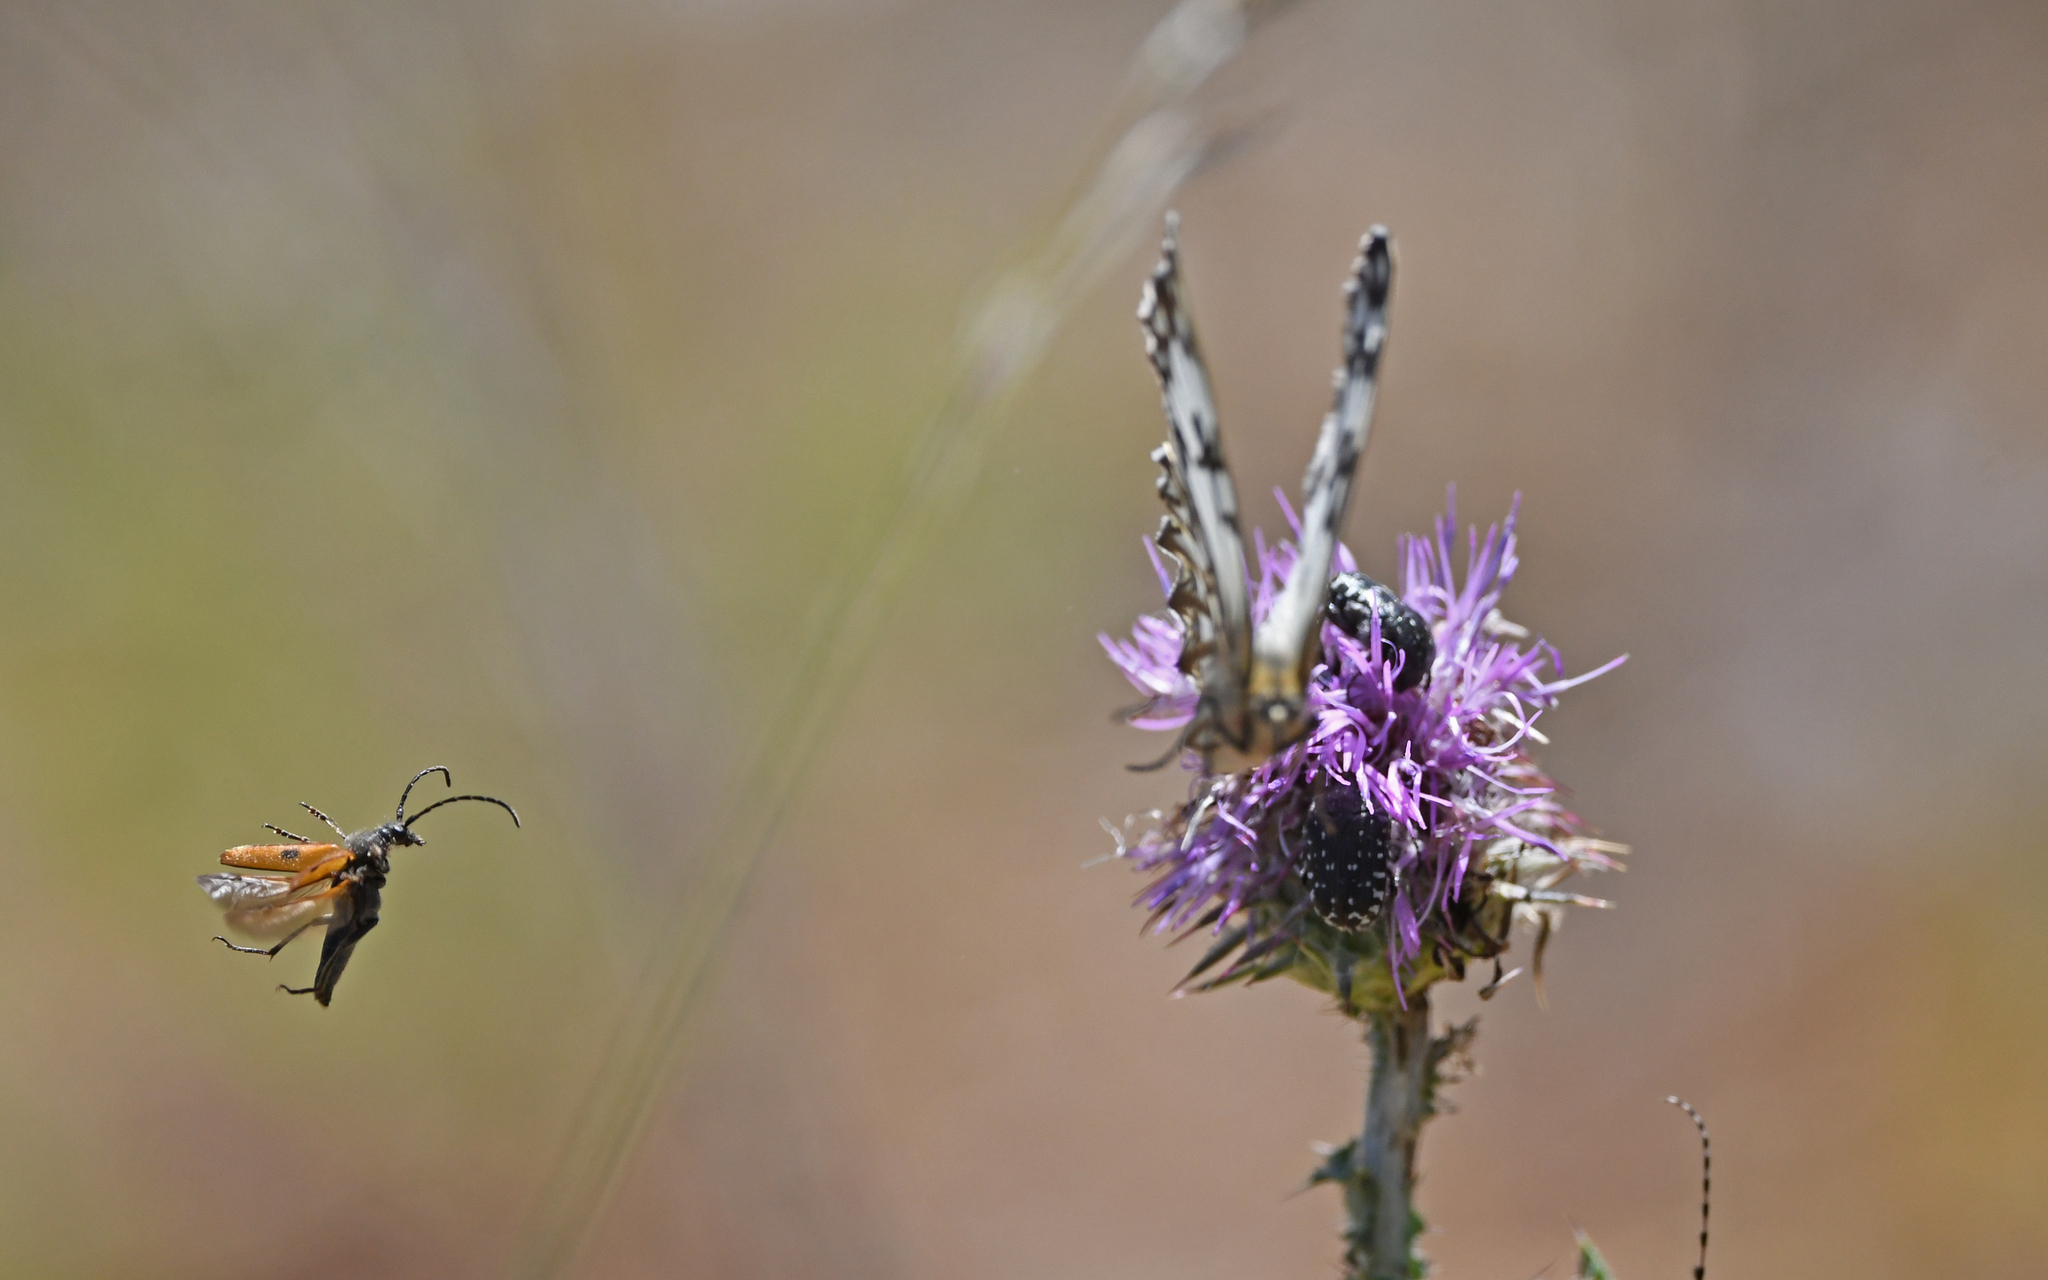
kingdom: Animalia
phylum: Arthropoda
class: Insecta
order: Coleoptera
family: Cerambycidae
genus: Vadonia
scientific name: Vadonia unipunctata
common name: Long-horned beetle
